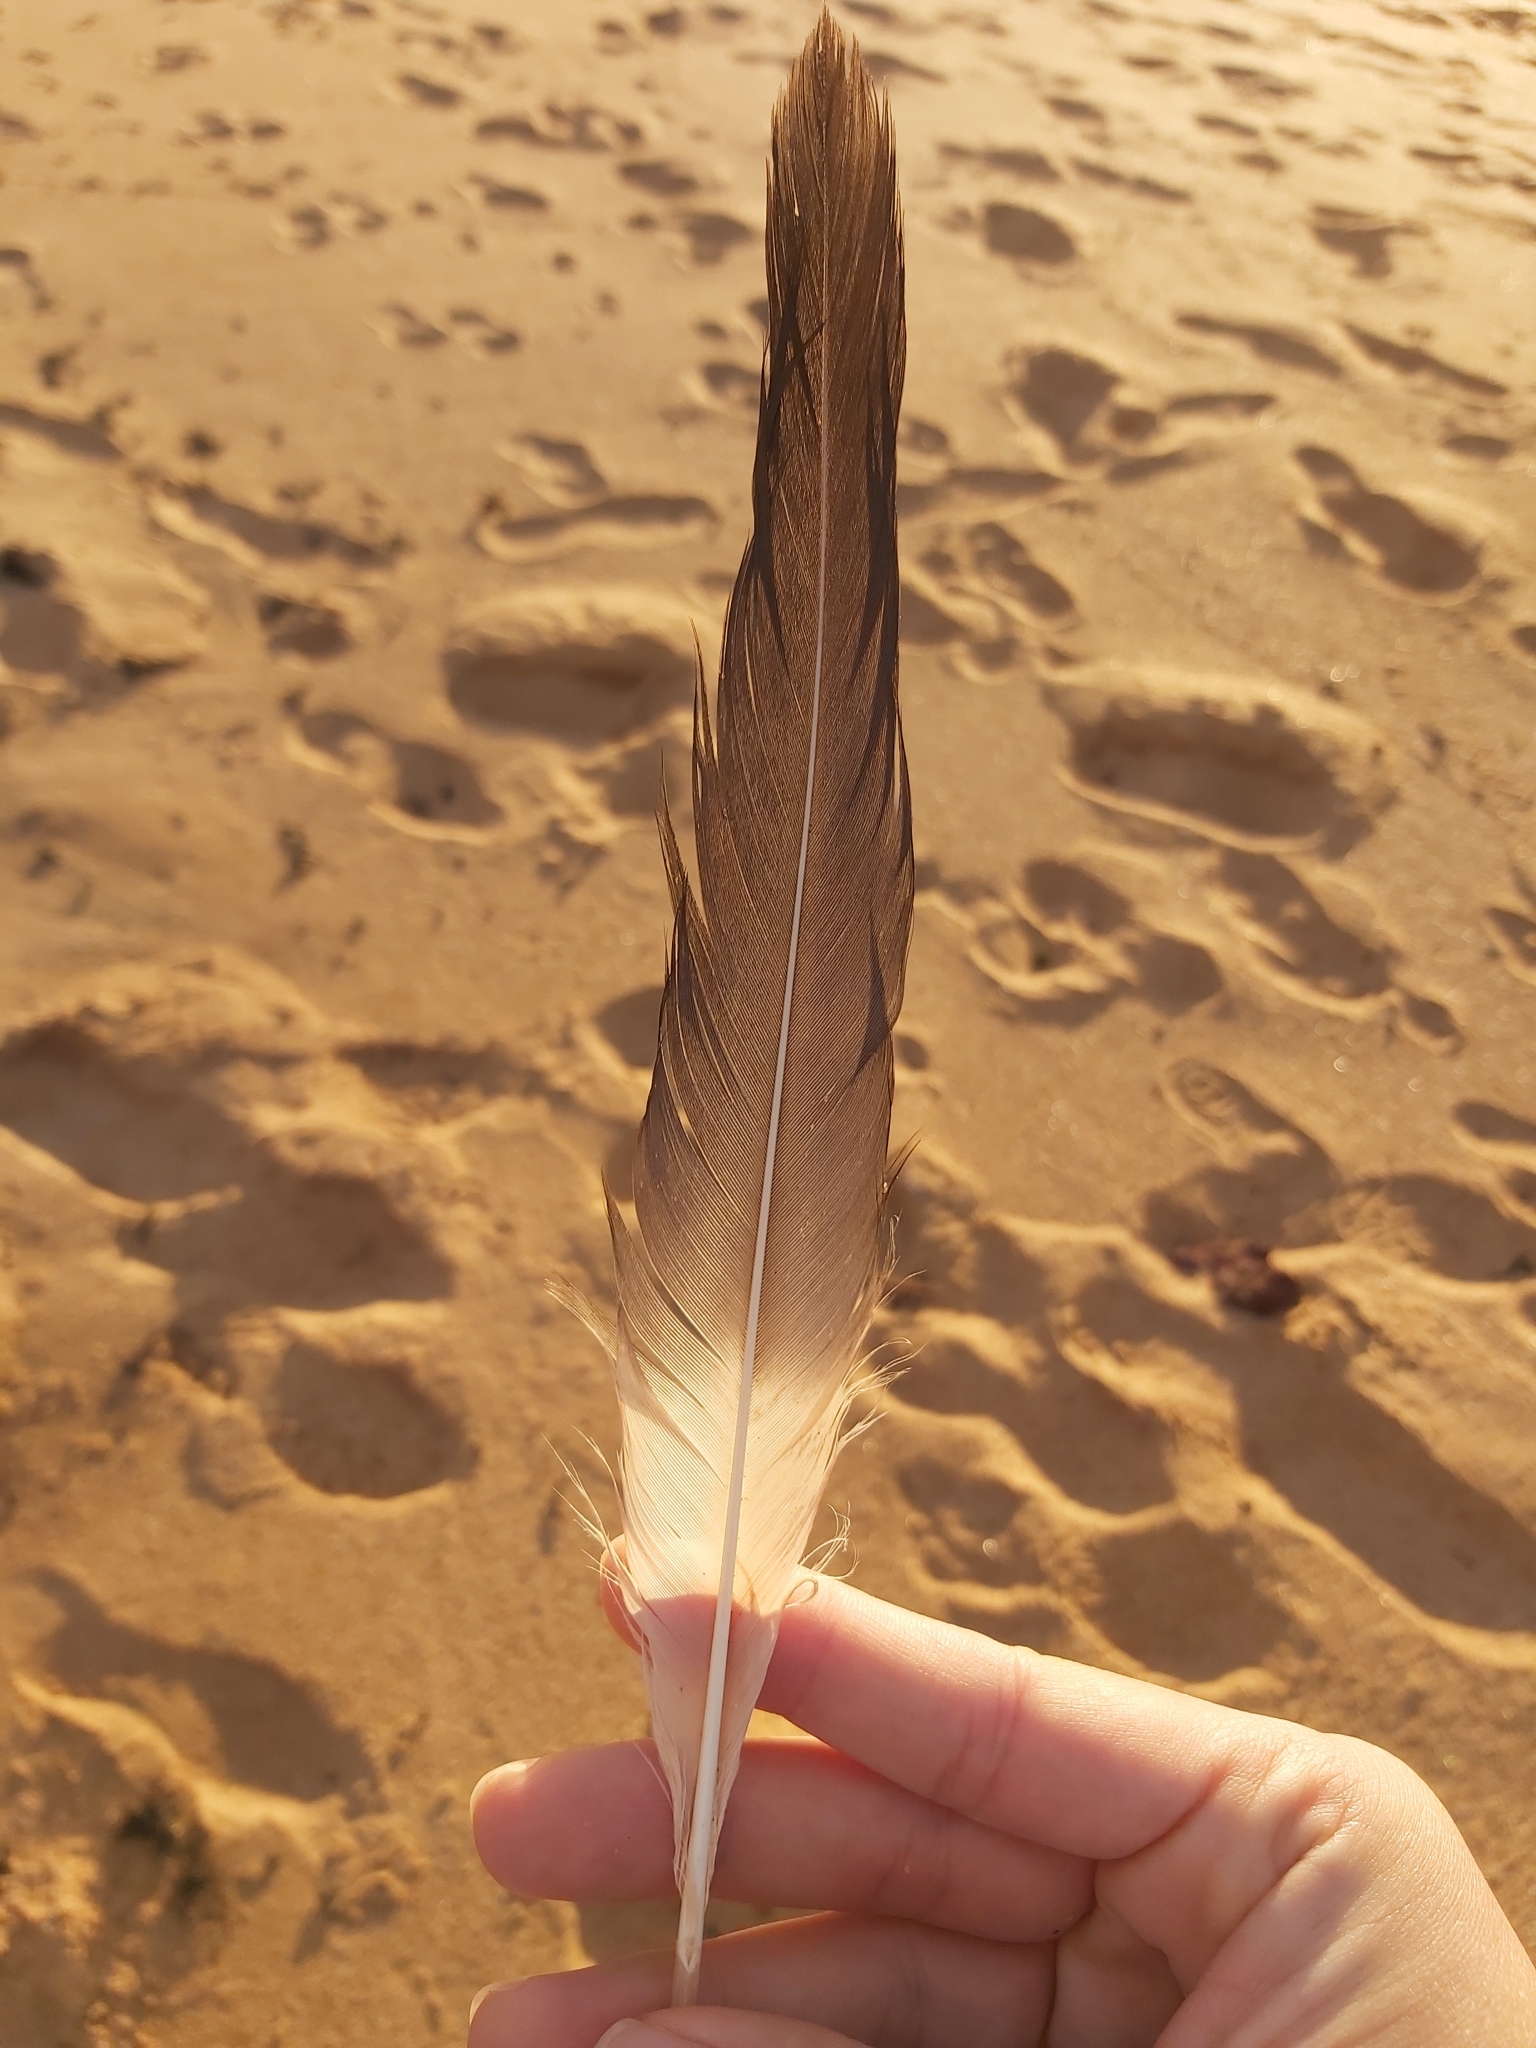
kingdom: Animalia
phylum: Chordata
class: Aves
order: Pelecaniformes
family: Pelecanidae
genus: Pelecanus
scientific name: Pelecanus conspicillatus
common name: Australian pelican
